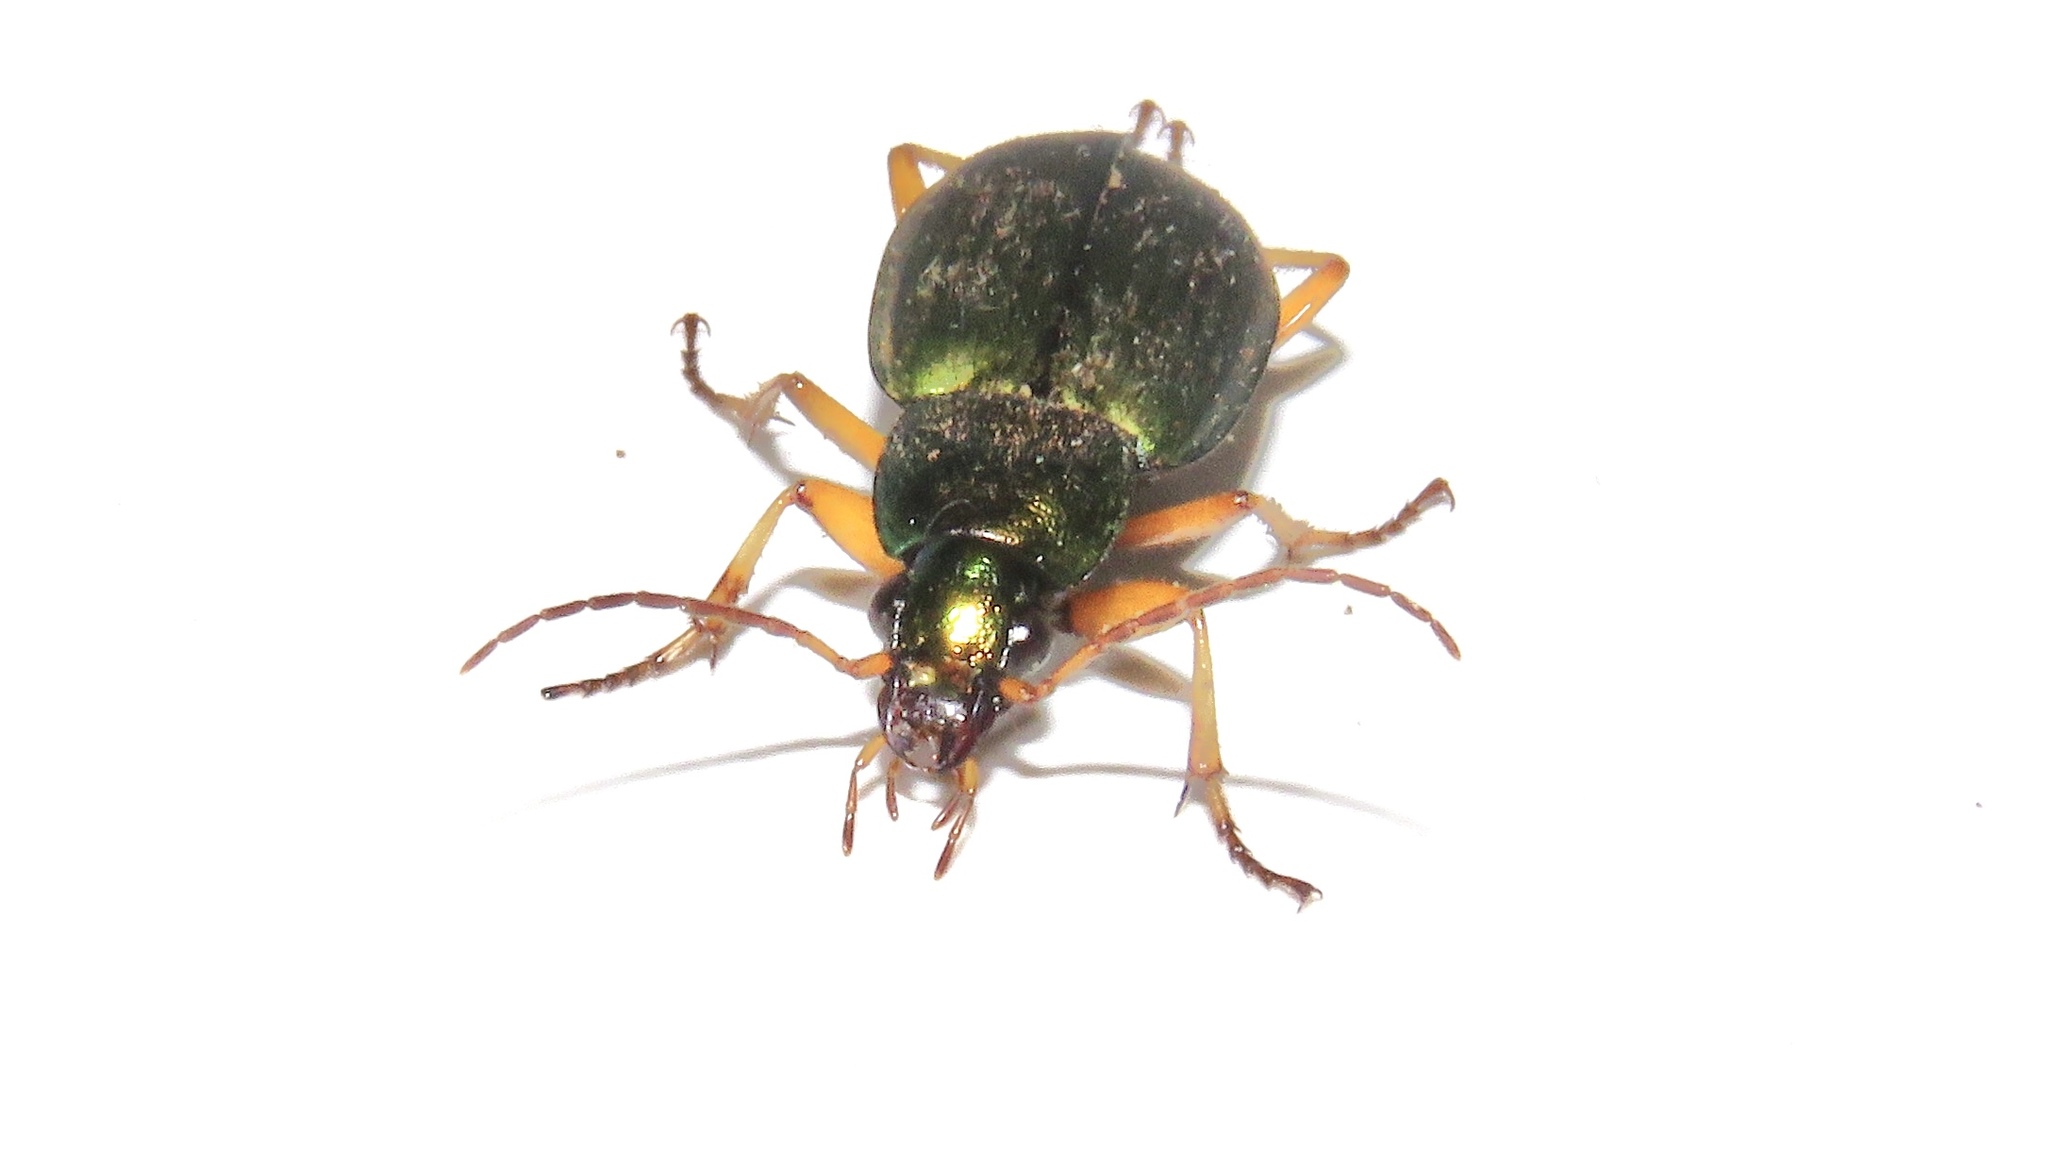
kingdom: Animalia
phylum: Arthropoda
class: Insecta
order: Coleoptera
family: Carabidae
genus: Chlaenius
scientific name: Chlaenius sericeus
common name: Green pubescent ground beetle
